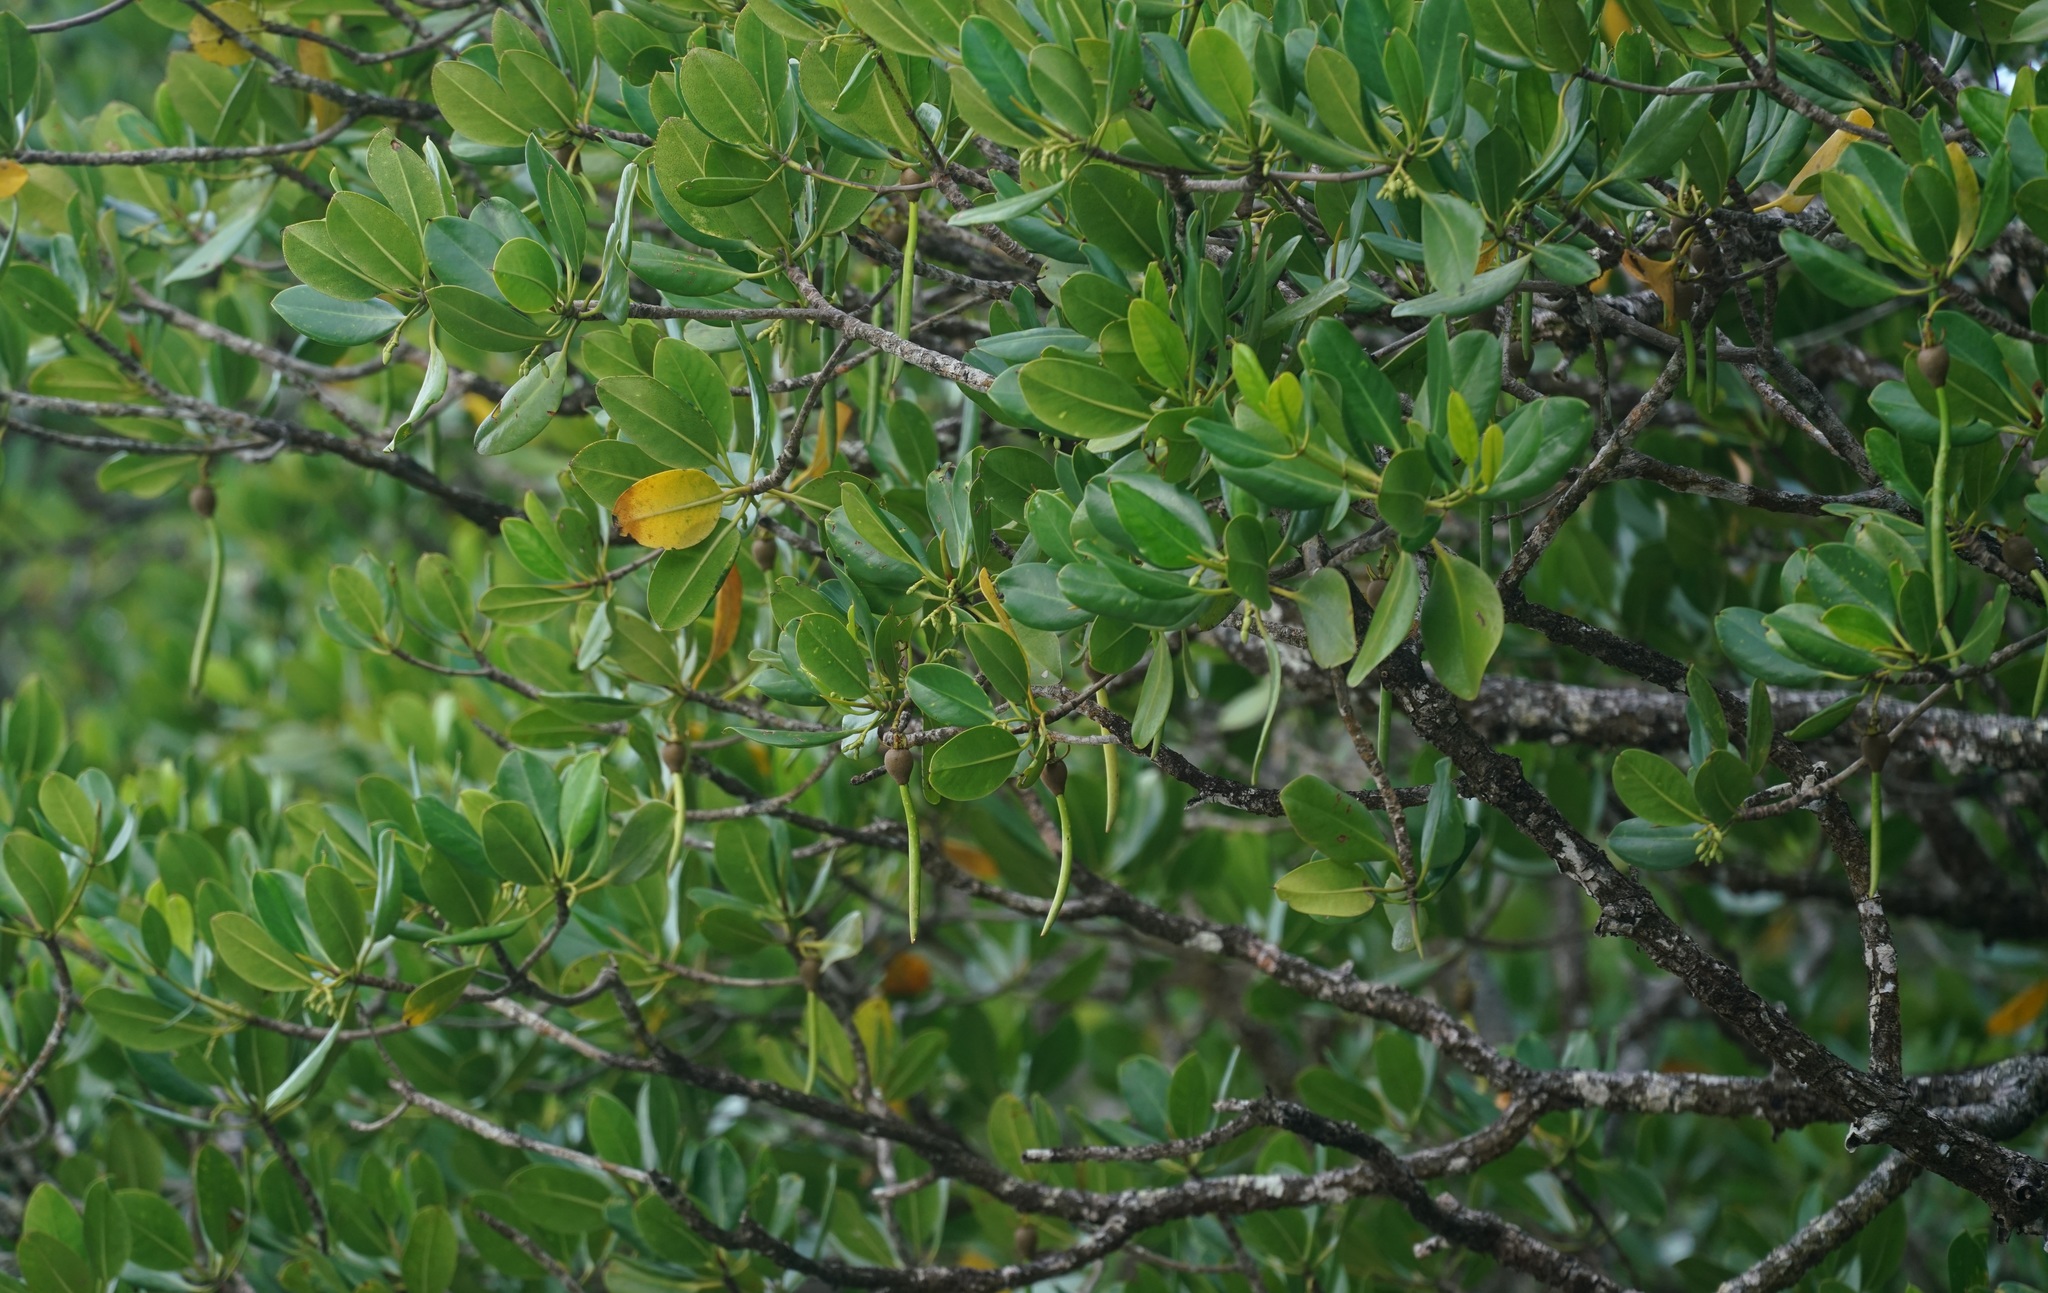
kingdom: Plantae
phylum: Tracheophyta
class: Magnoliopsida
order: Malpighiales
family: Rhizophoraceae
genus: Rhizophora
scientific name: Rhizophora stylosa
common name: Red mangrove
